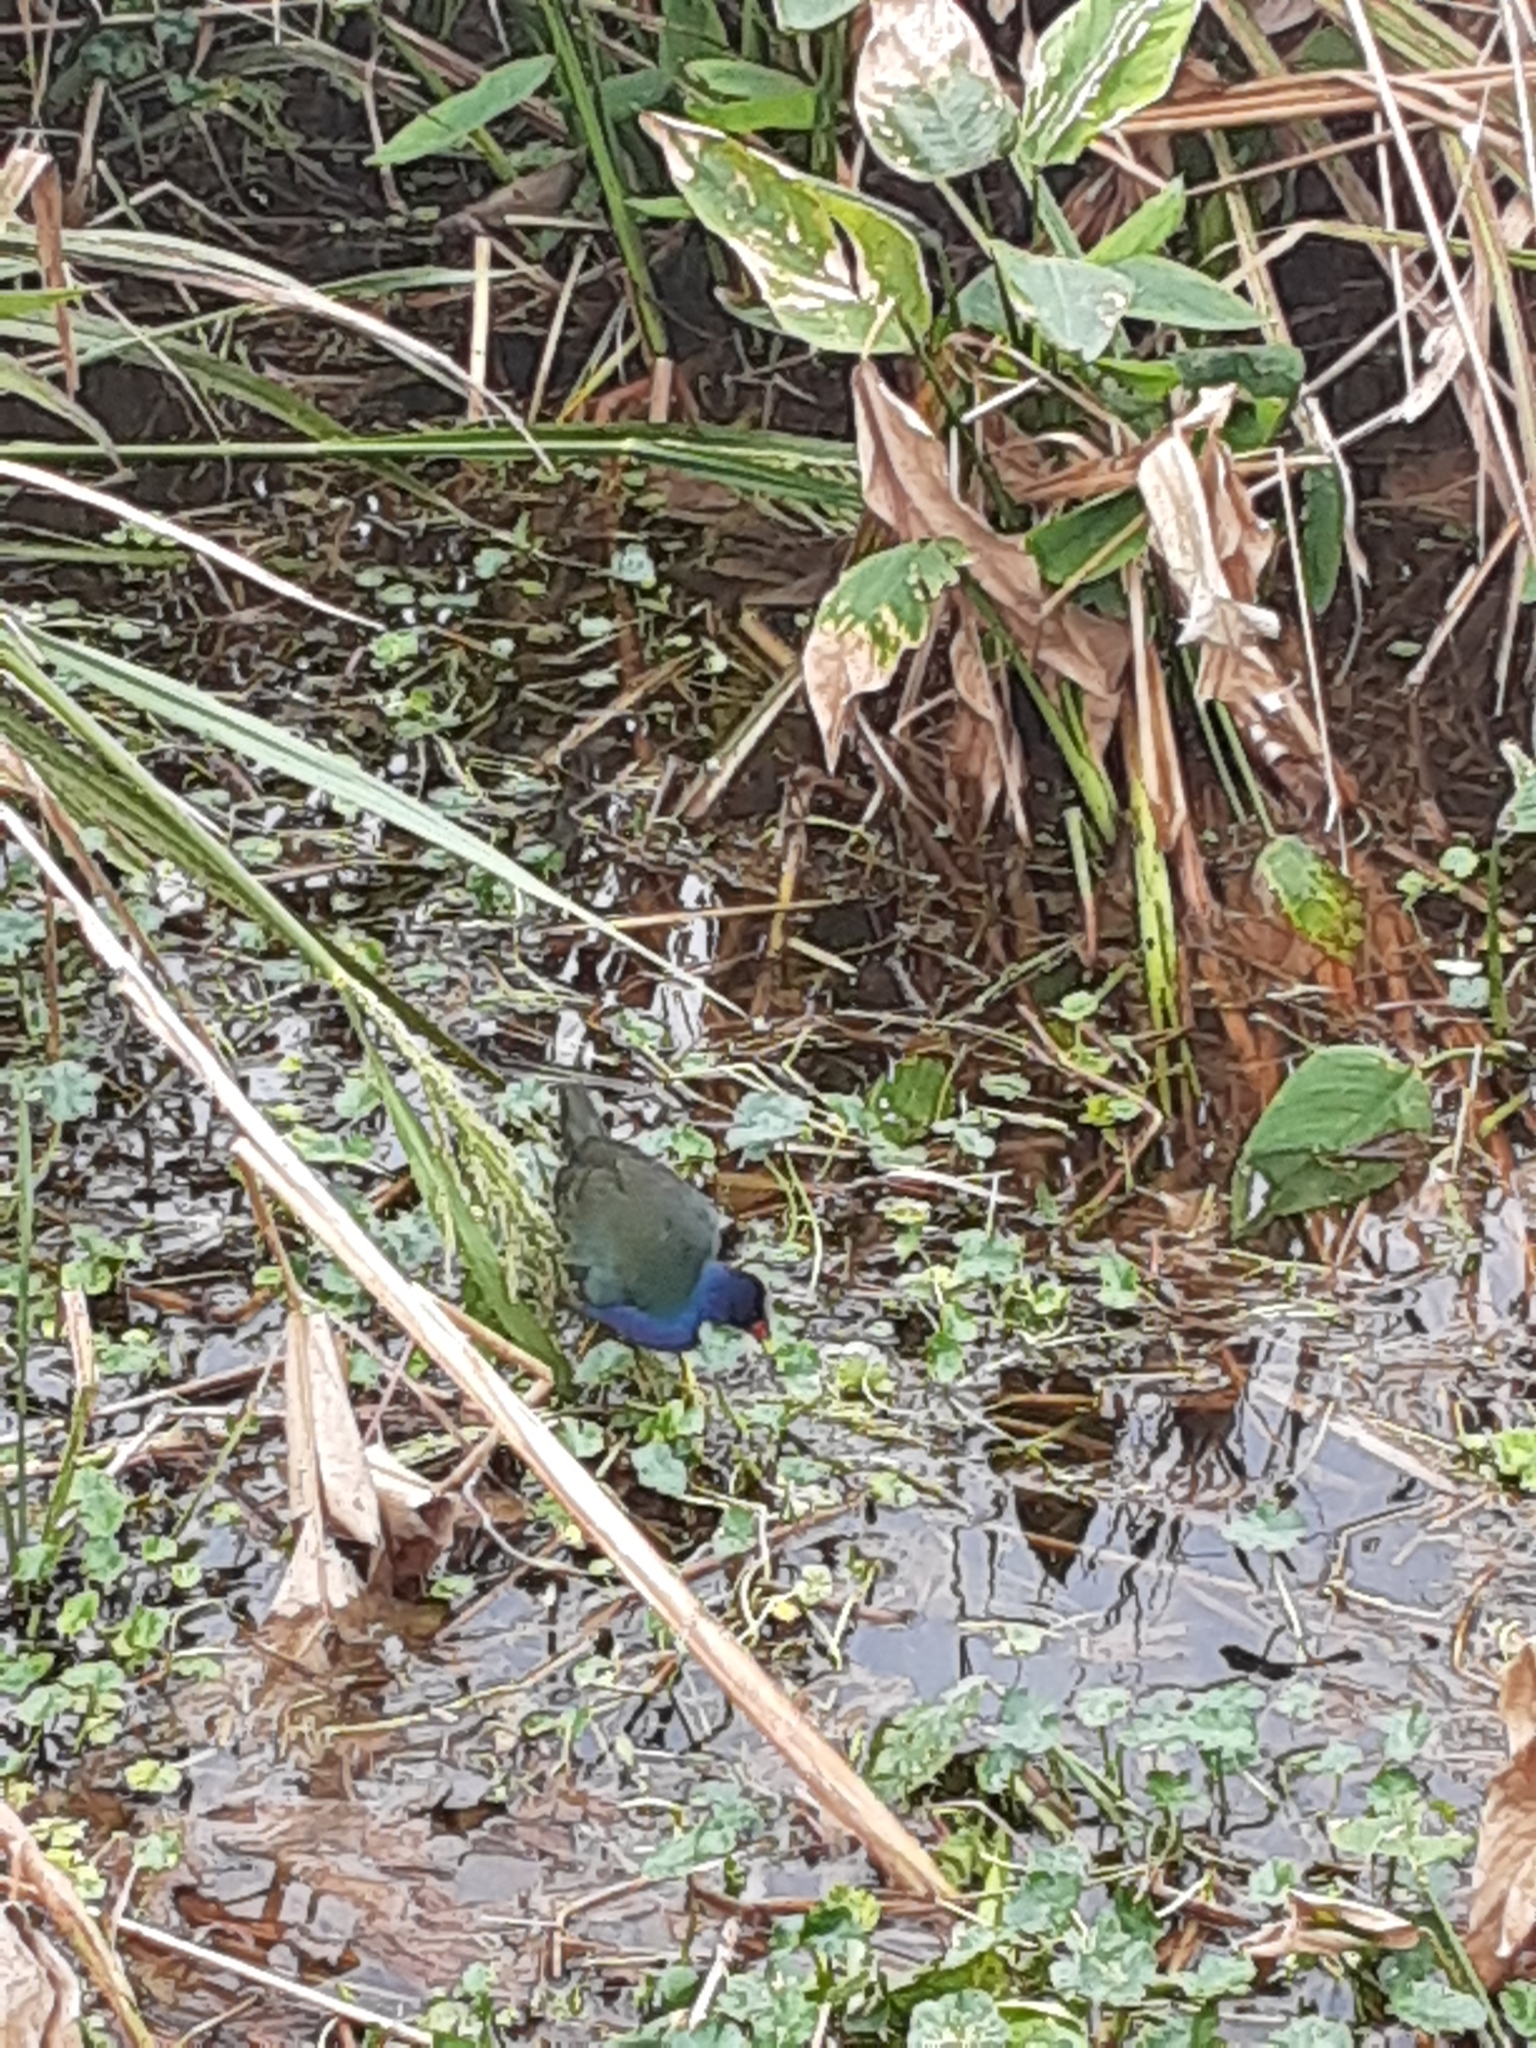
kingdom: Animalia
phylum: Chordata
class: Aves
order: Gruiformes
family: Rallidae
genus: Porphyrio
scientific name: Porphyrio martinica
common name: Purple gallinule
